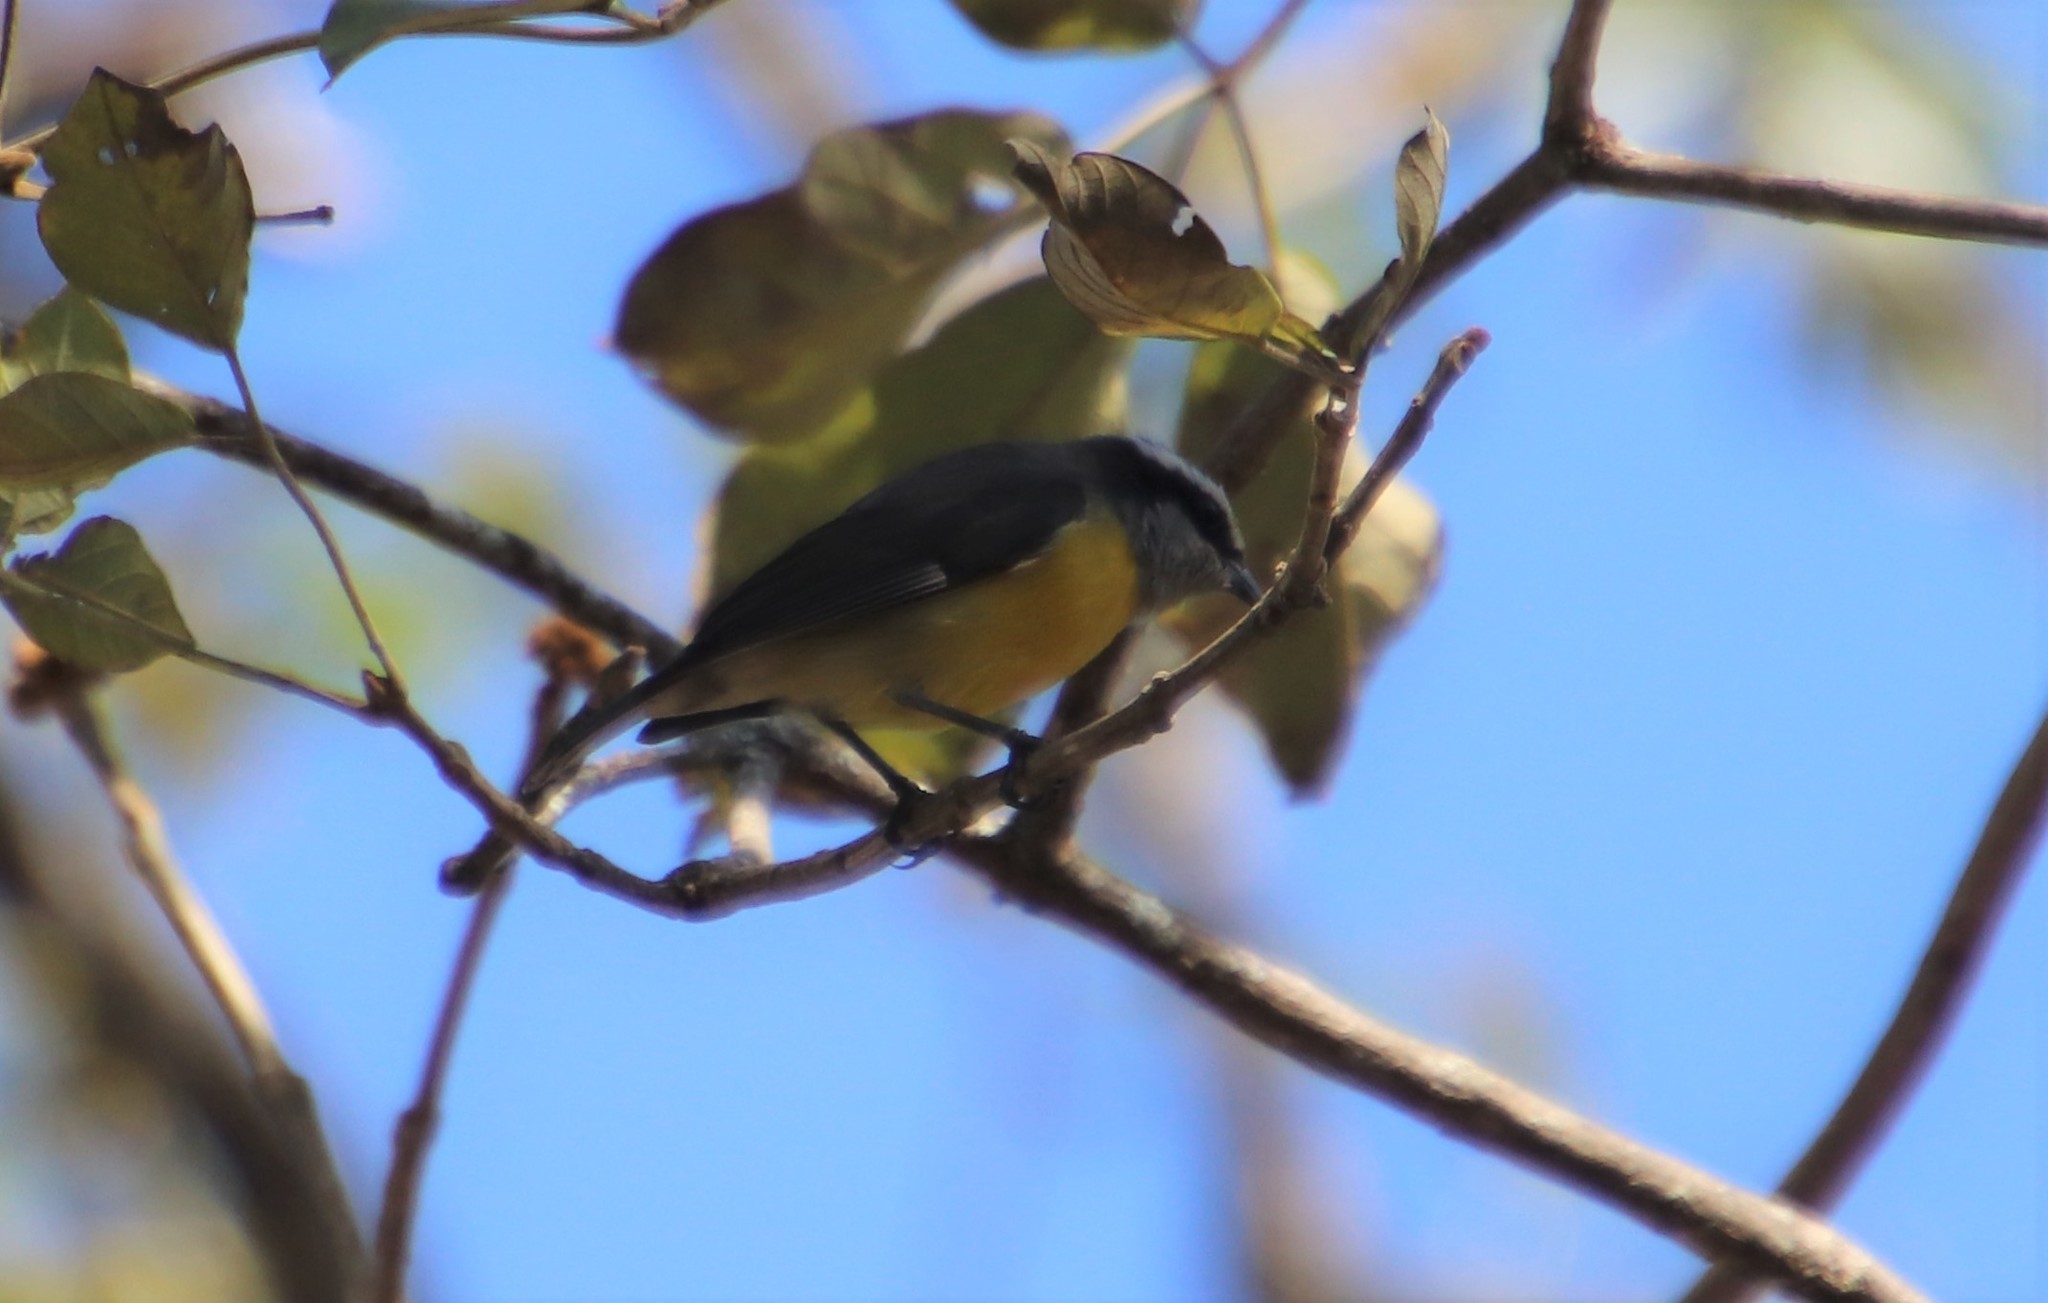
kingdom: Animalia
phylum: Chordata
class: Aves
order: Passeriformes
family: Thraupidae
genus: Coereba
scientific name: Coereba flaveola
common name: Bananaquit
